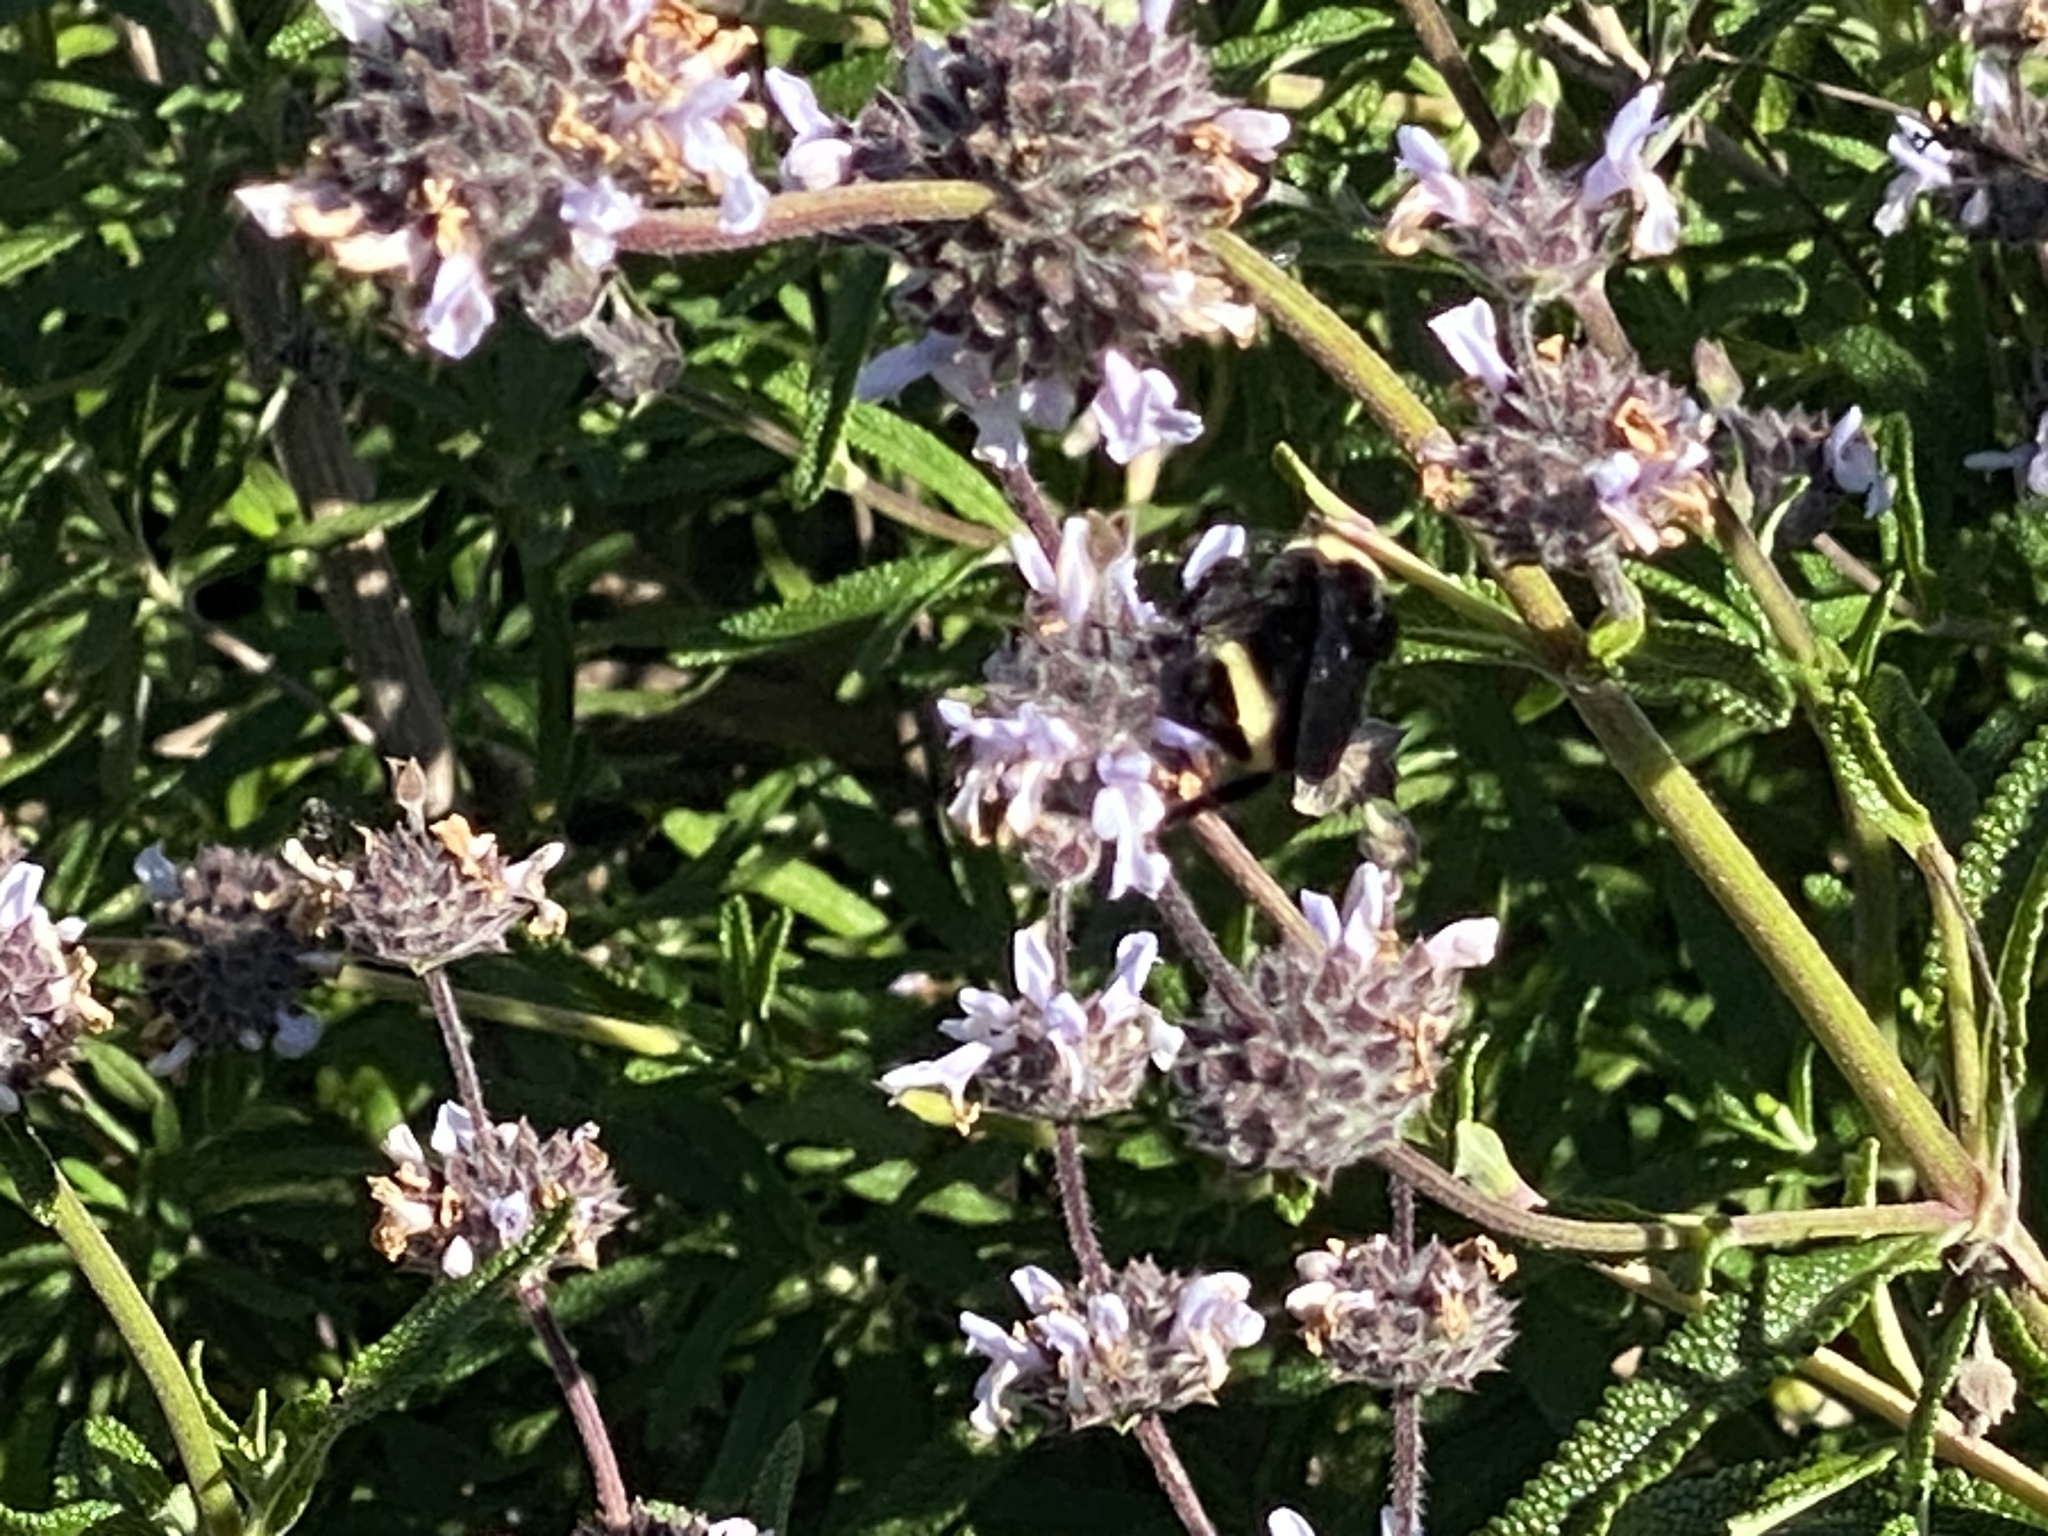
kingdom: Animalia
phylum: Arthropoda
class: Insecta
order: Hymenoptera
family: Apidae
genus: Bombus
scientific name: Bombus vosnesenskii
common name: Vosnesensky bumble bee
